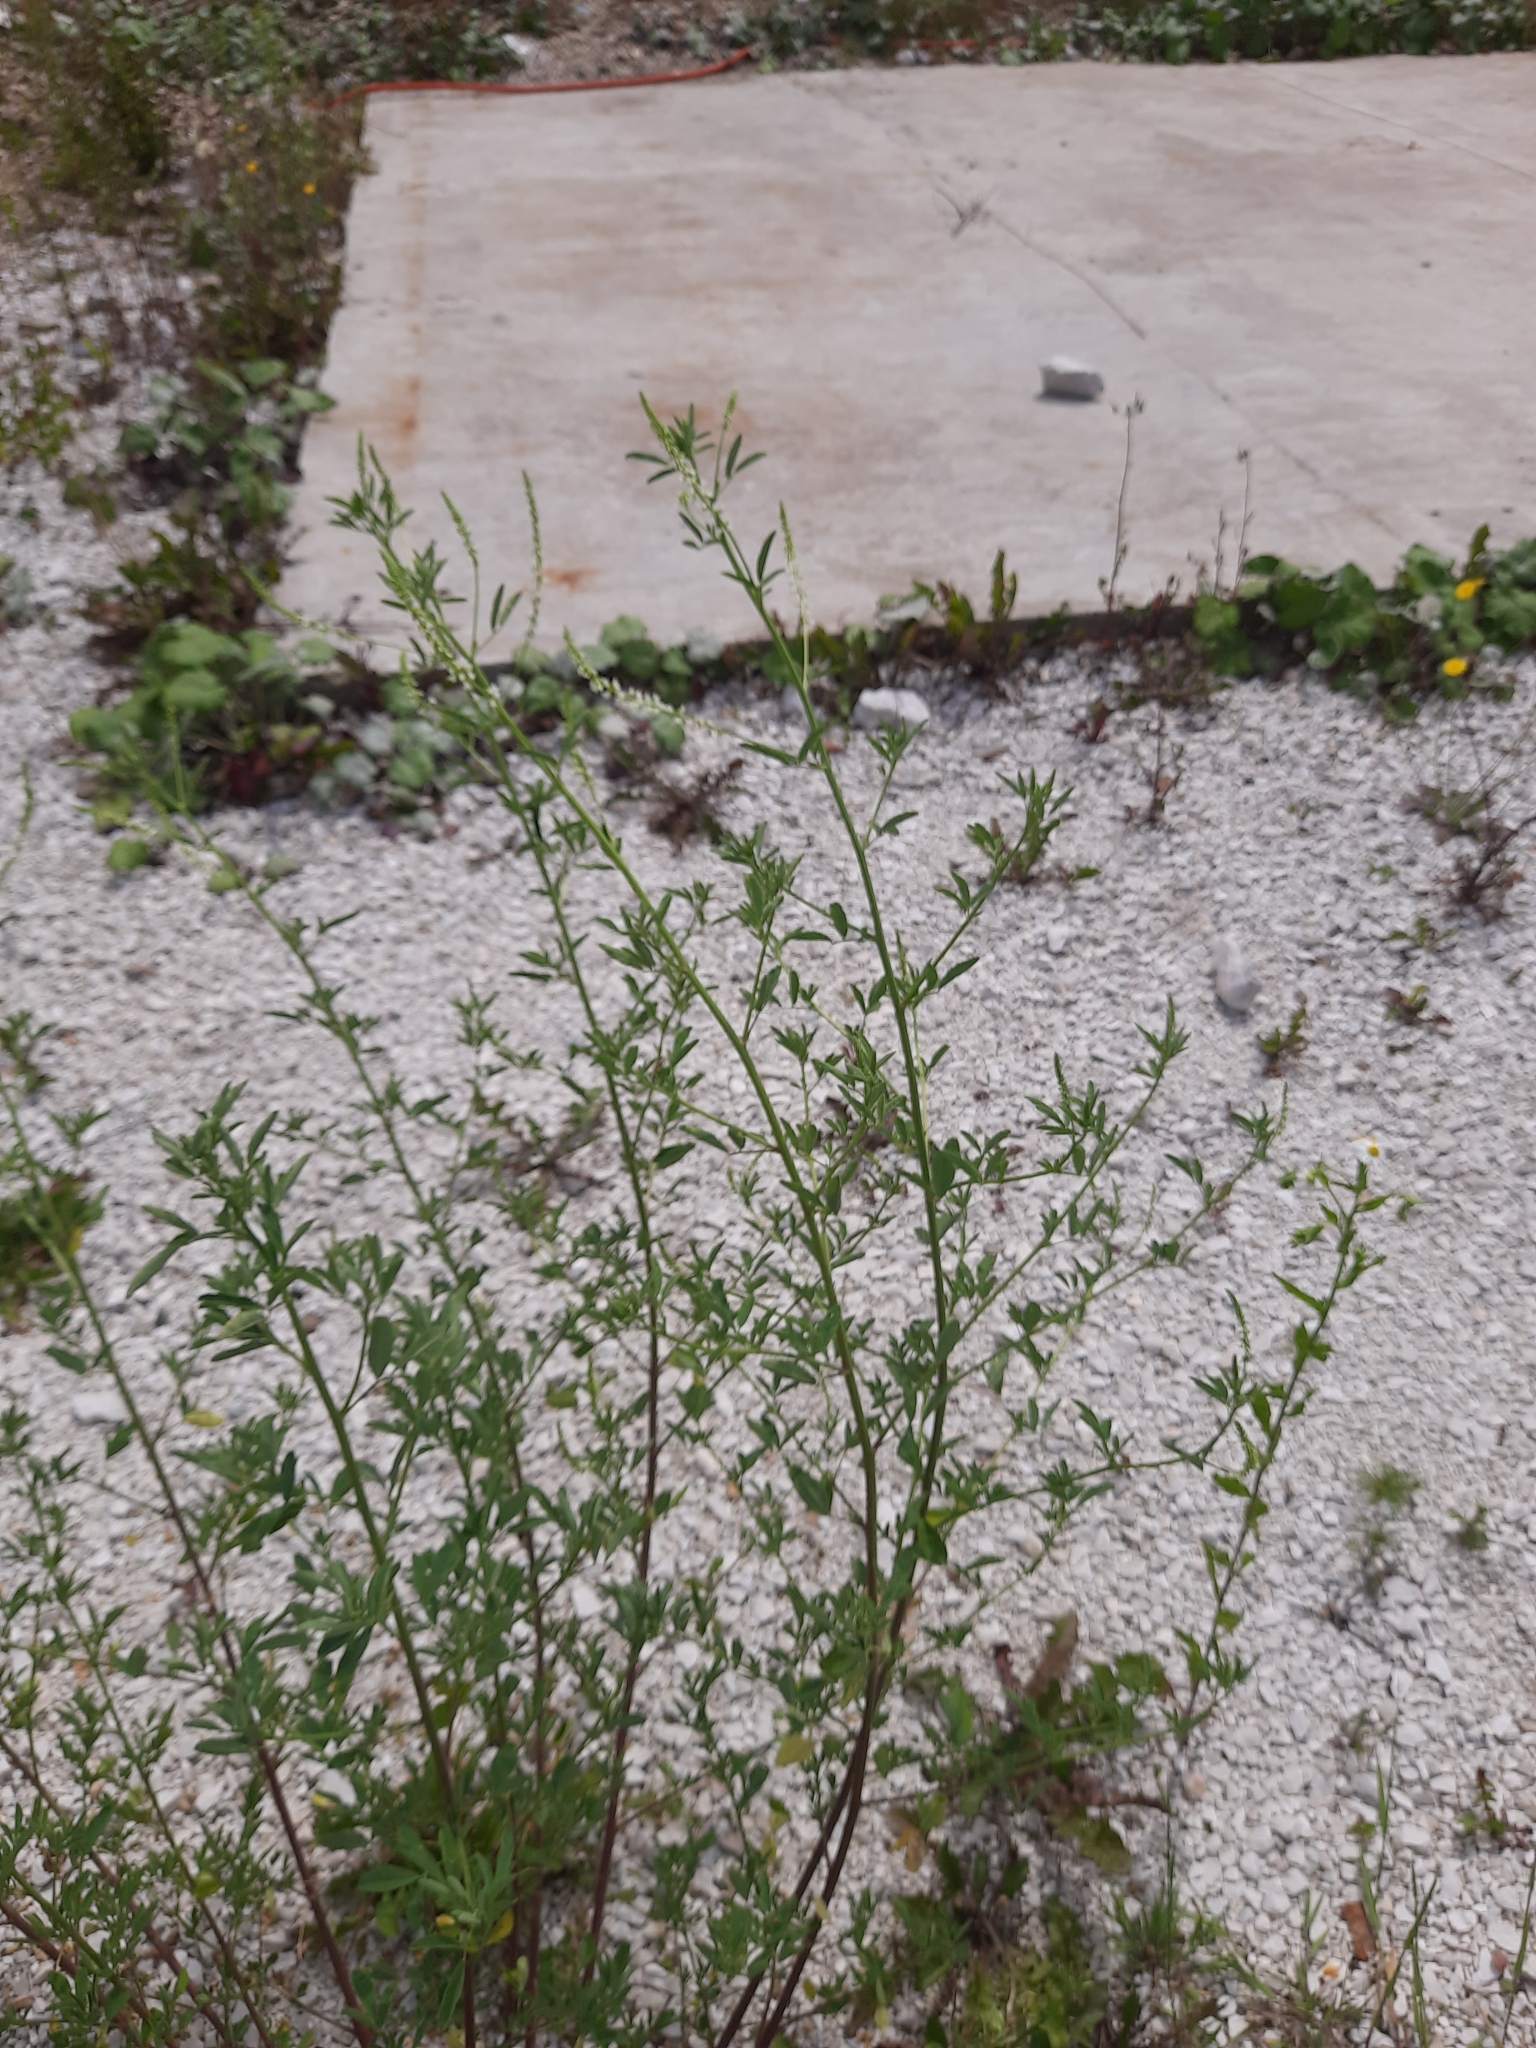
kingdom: Plantae
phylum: Tracheophyta
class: Magnoliopsida
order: Fabales
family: Fabaceae
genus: Melilotus
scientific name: Melilotus albus
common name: White melilot
